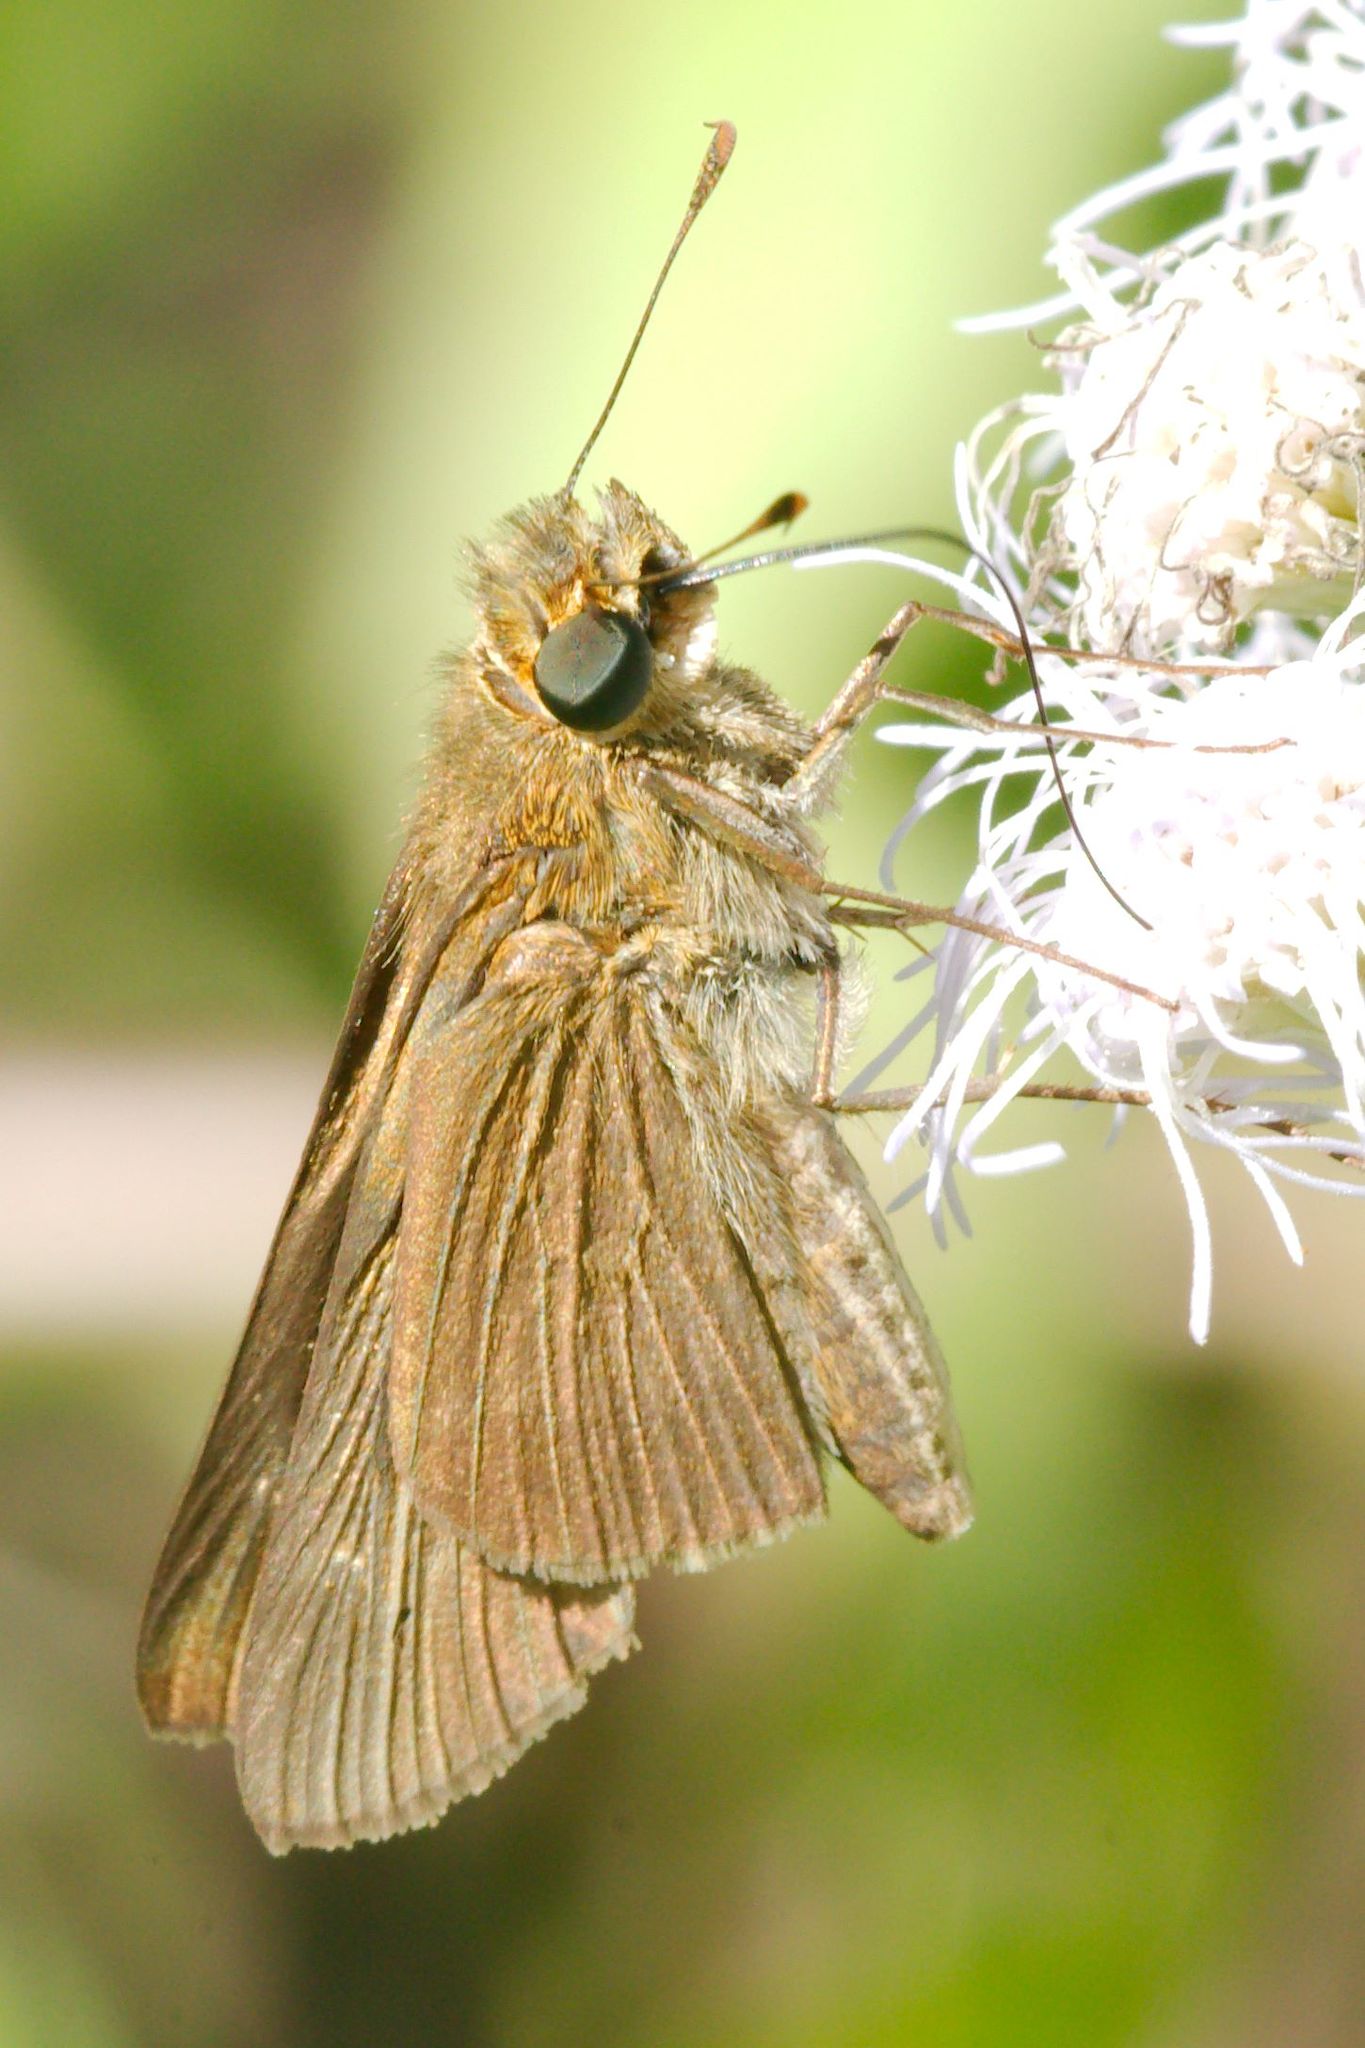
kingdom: Animalia
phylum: Arthropoda
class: Insecta
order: Lepidoptera
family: Hesperiidae
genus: Panoquina
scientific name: Panoquina ocola
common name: Ocola skipper
